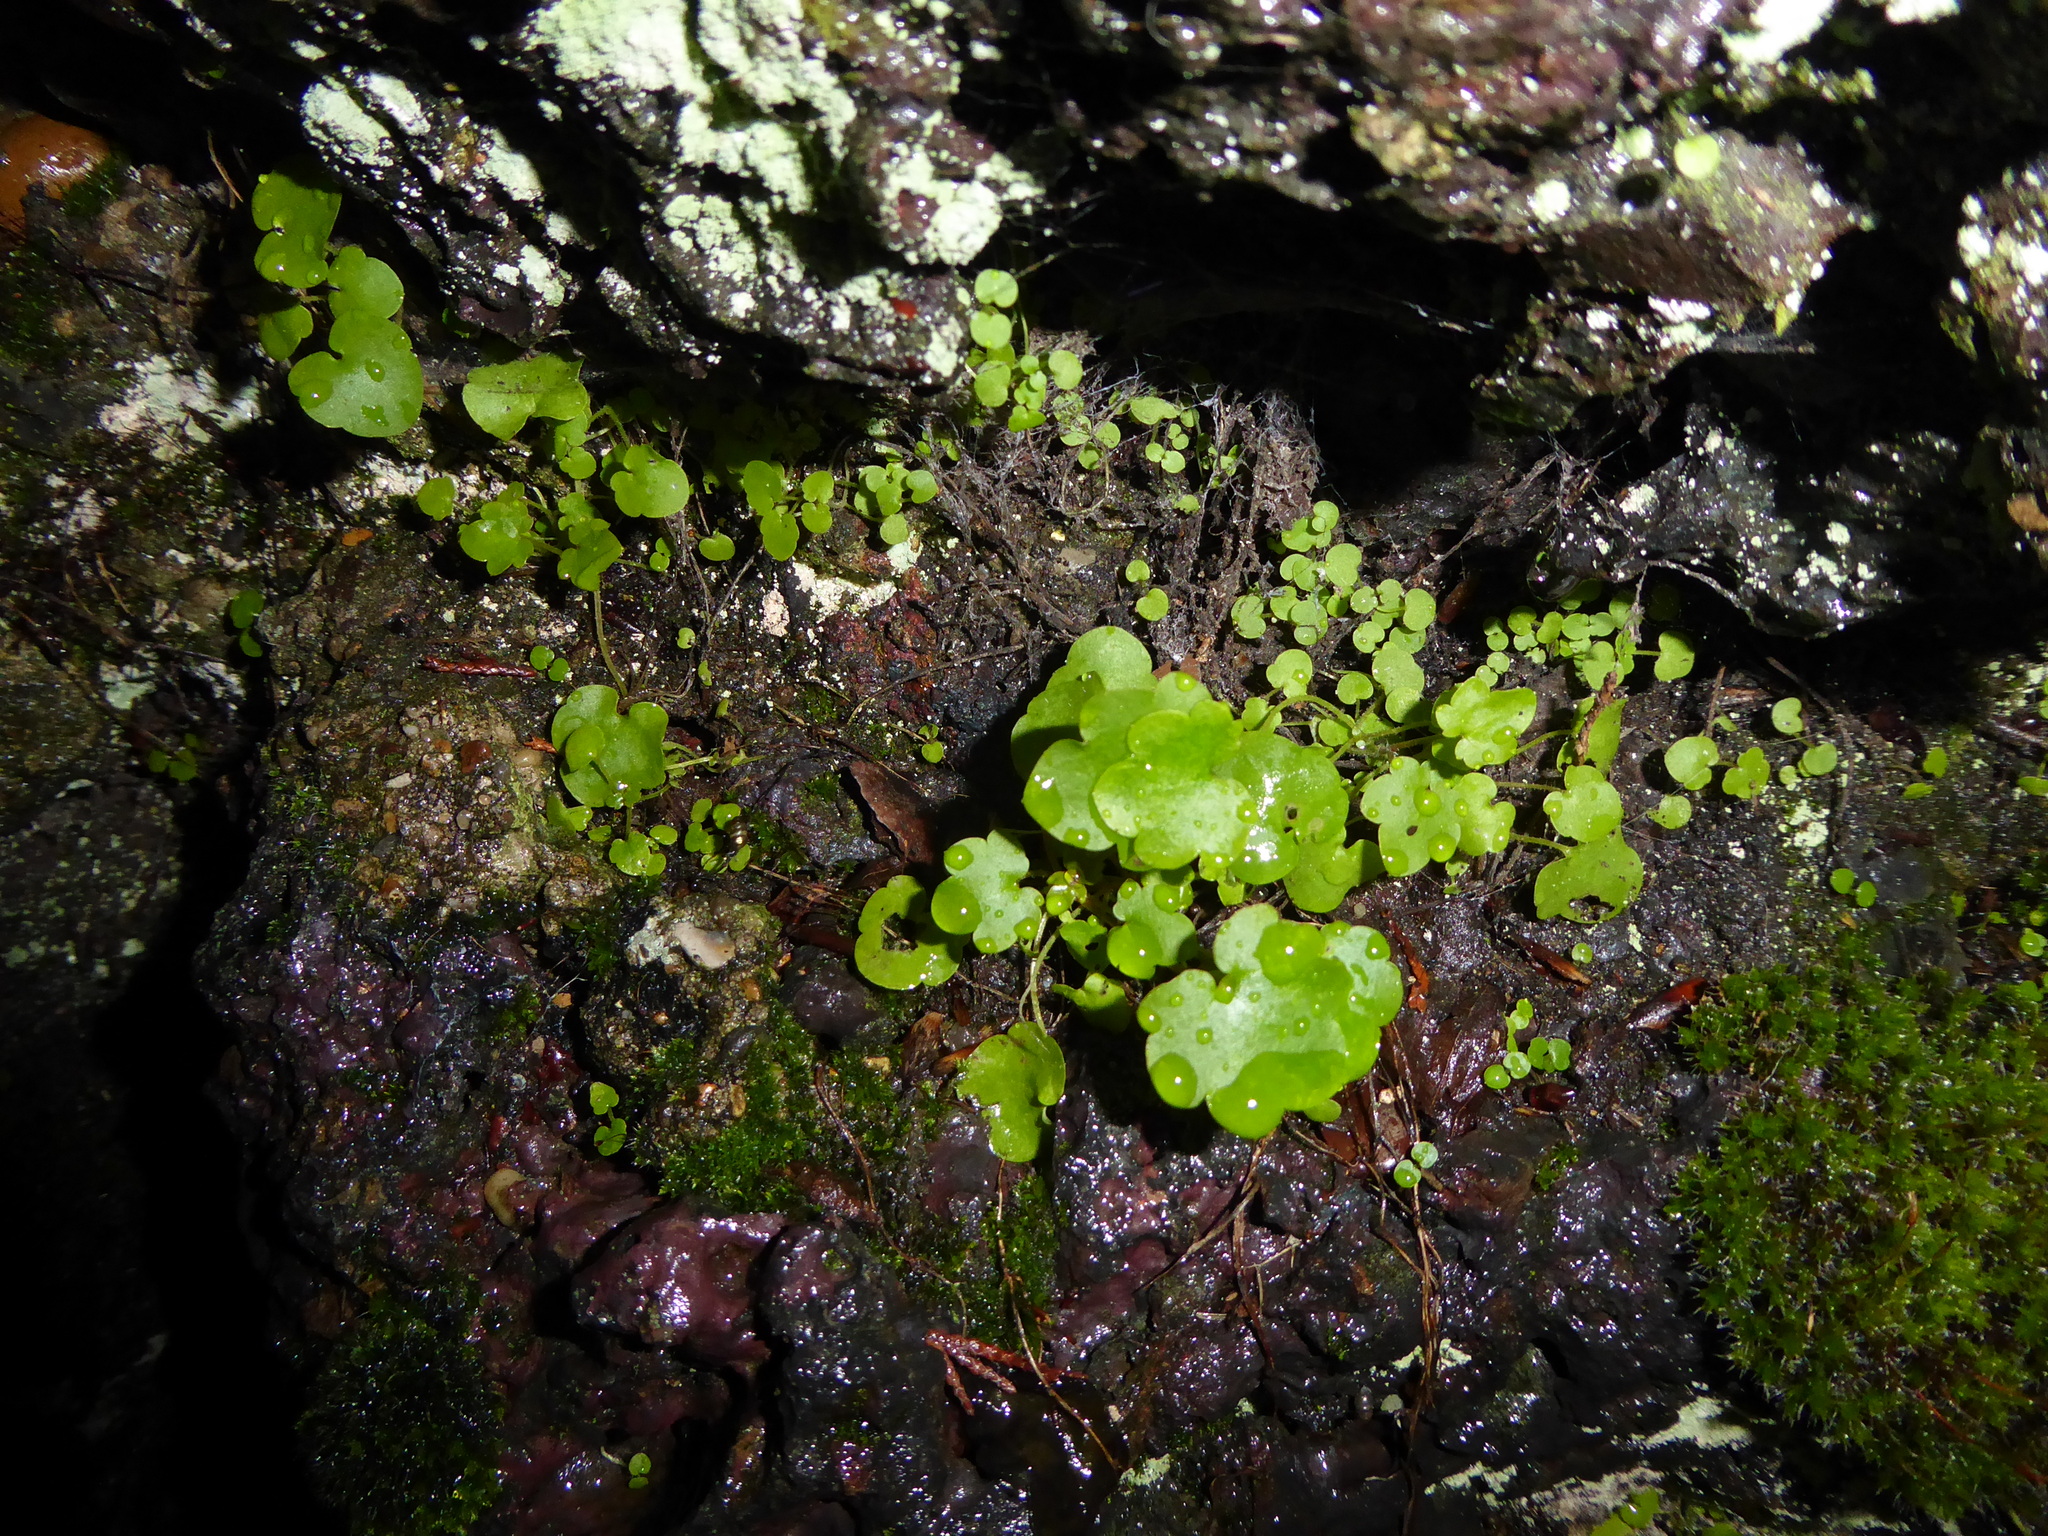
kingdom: Plantae
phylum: Tracheophyta
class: Magnoliopsida
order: Lamiales
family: Plantaginaceae
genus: Cymbalaria
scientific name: Cymbalaria muralis
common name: Ivy-leaved toadflax
